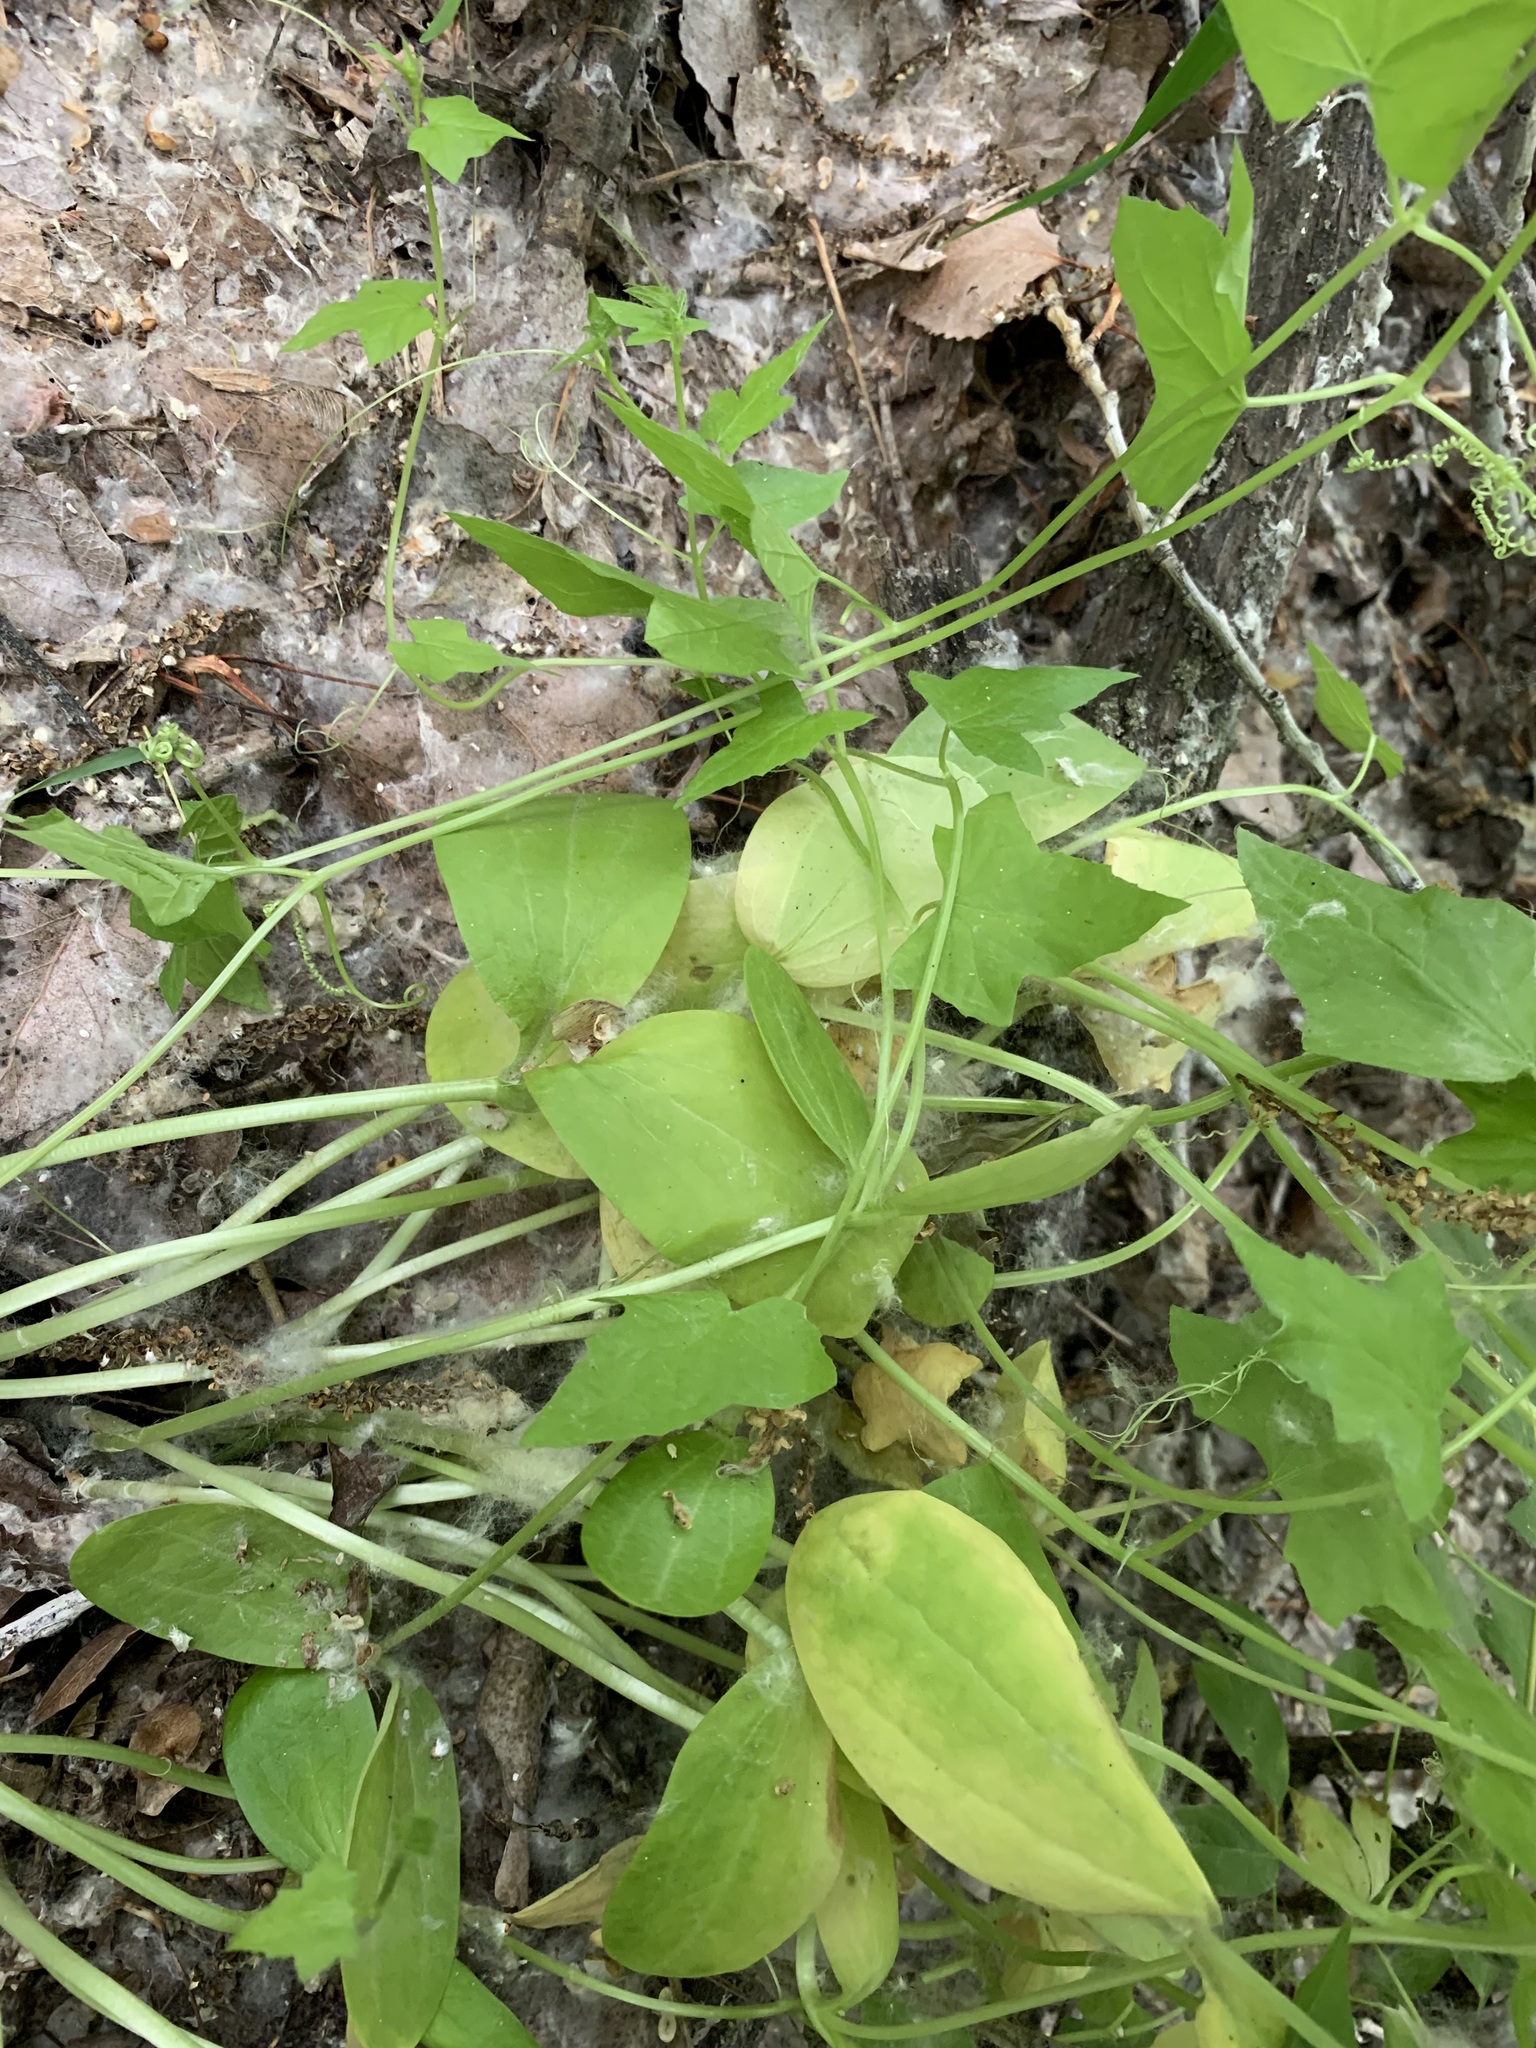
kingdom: Plantae
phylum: Tracheophyta
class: Magnoliopsida
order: Cucurbitales
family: Cucurbitaceae
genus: Echinocystis
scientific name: Echinocystis lobata
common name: Wild cucumber
